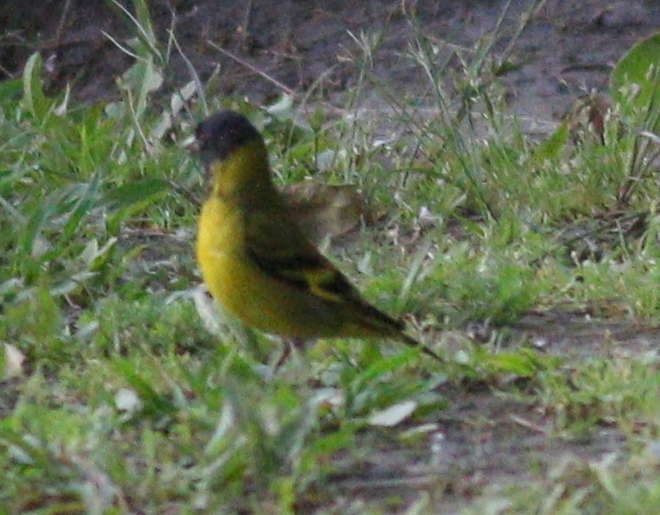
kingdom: Animalia
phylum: Chordata
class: Aves
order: Passeriformes
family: Fringillidae
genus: Spinus
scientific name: Spinus magellanicus
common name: Hooded siskin
